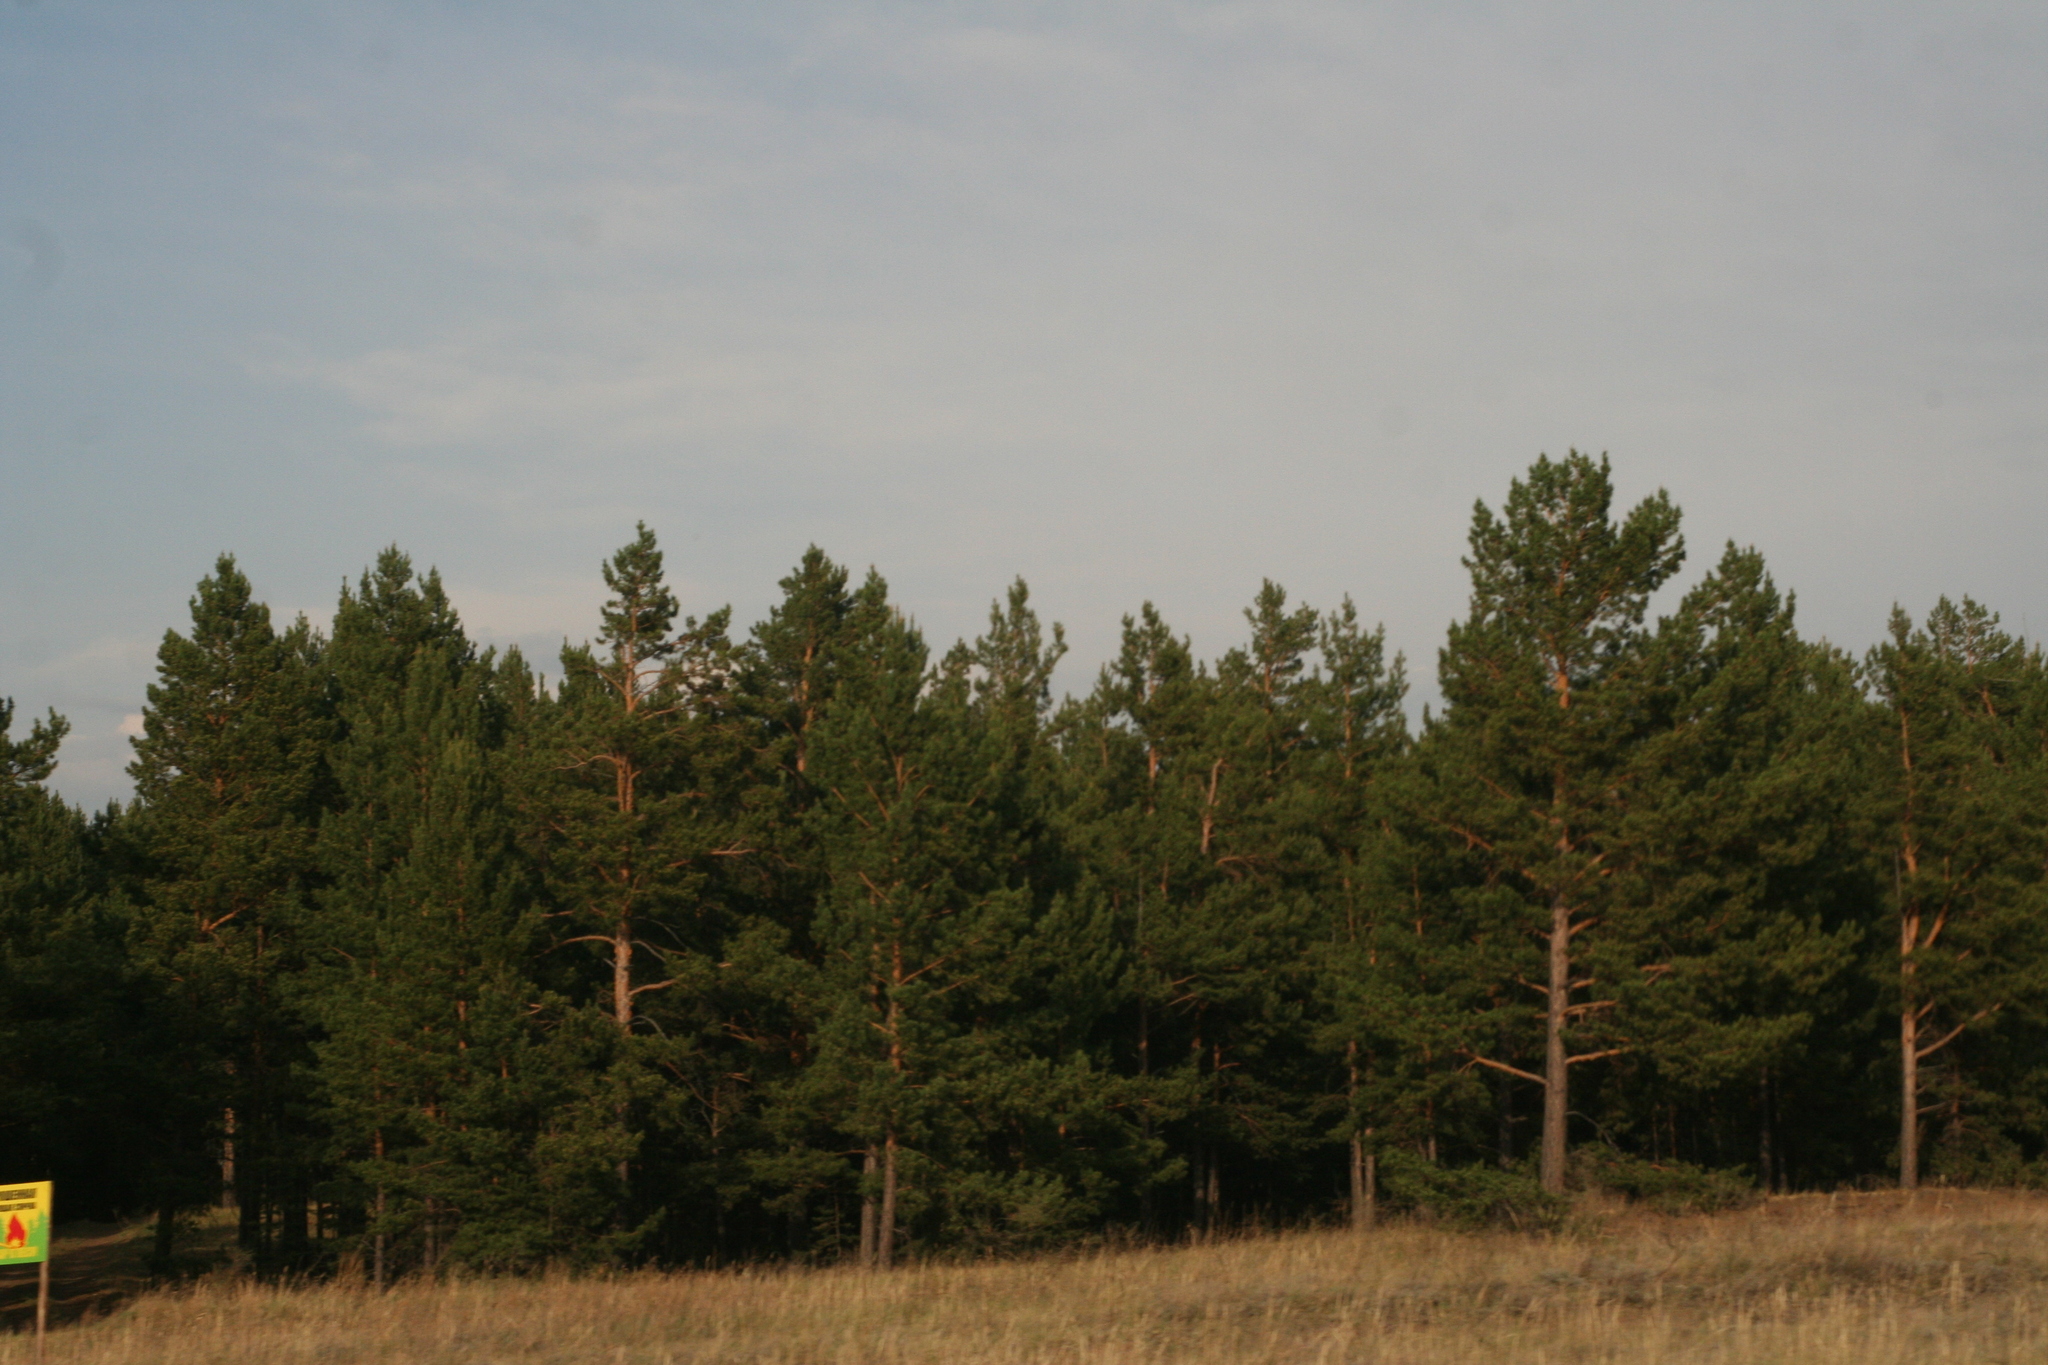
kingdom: Plantae
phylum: Tracheophyta
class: Pinopsida
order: Pinales
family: Pinaceae
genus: Pinus
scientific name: Pinus sylvestris
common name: Scots pine
